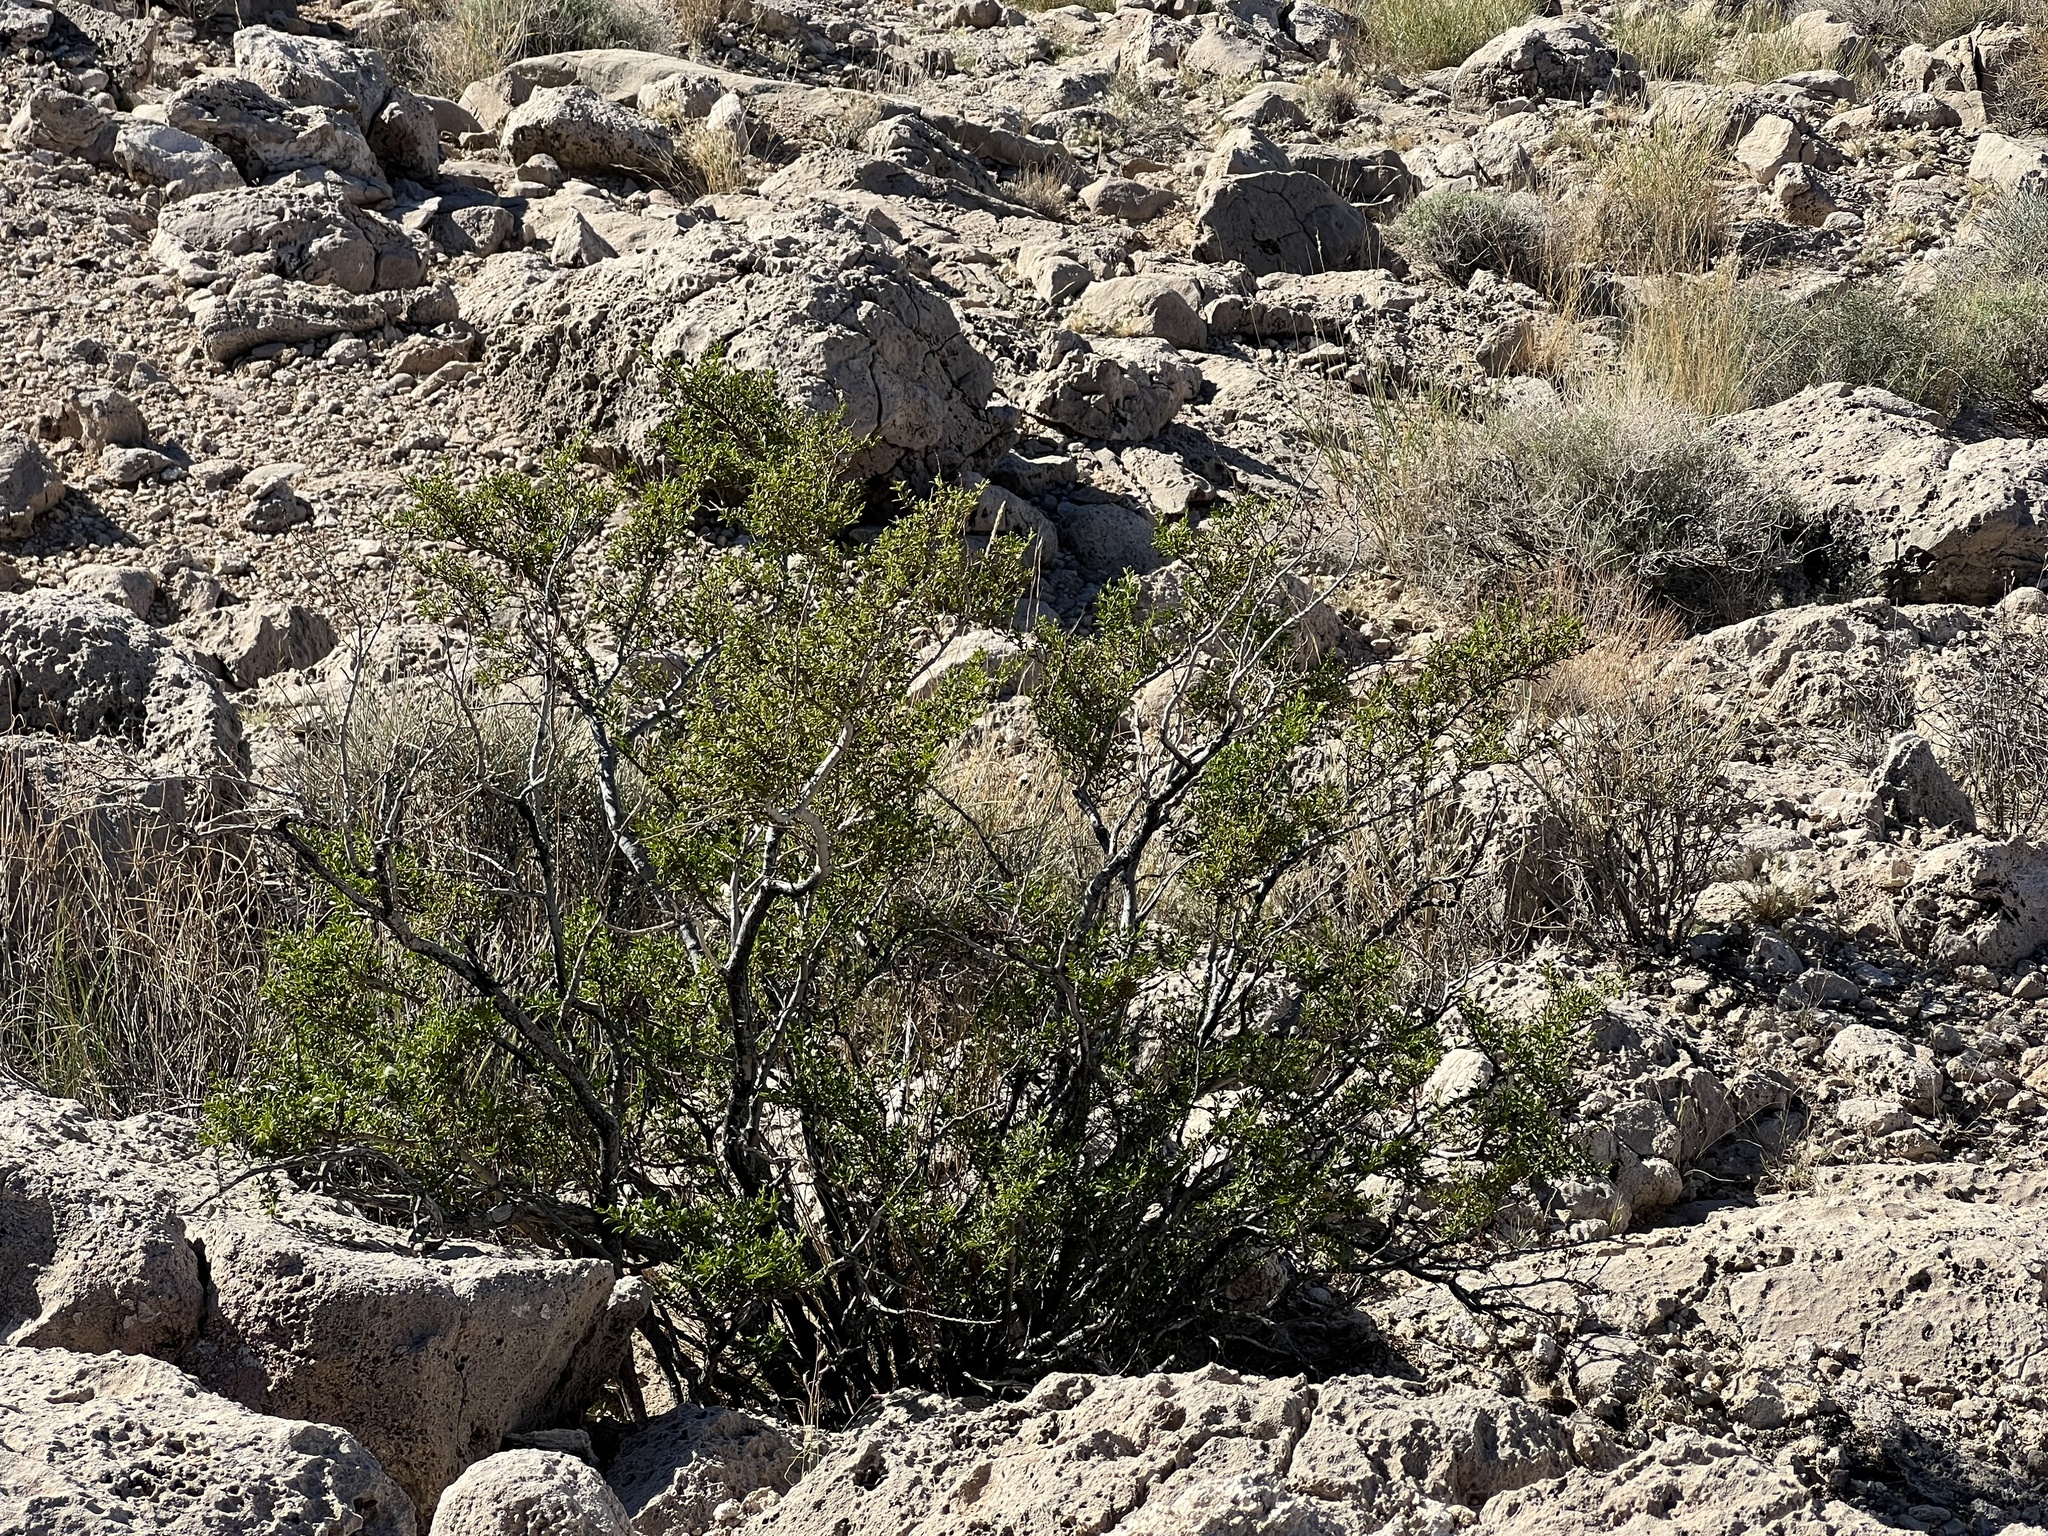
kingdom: Plantae
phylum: Tracheophyta
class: Magnoliopsida
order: Zygophyllales
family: Zygophyllaceae
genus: Larrea
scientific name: Larrea tridentata
